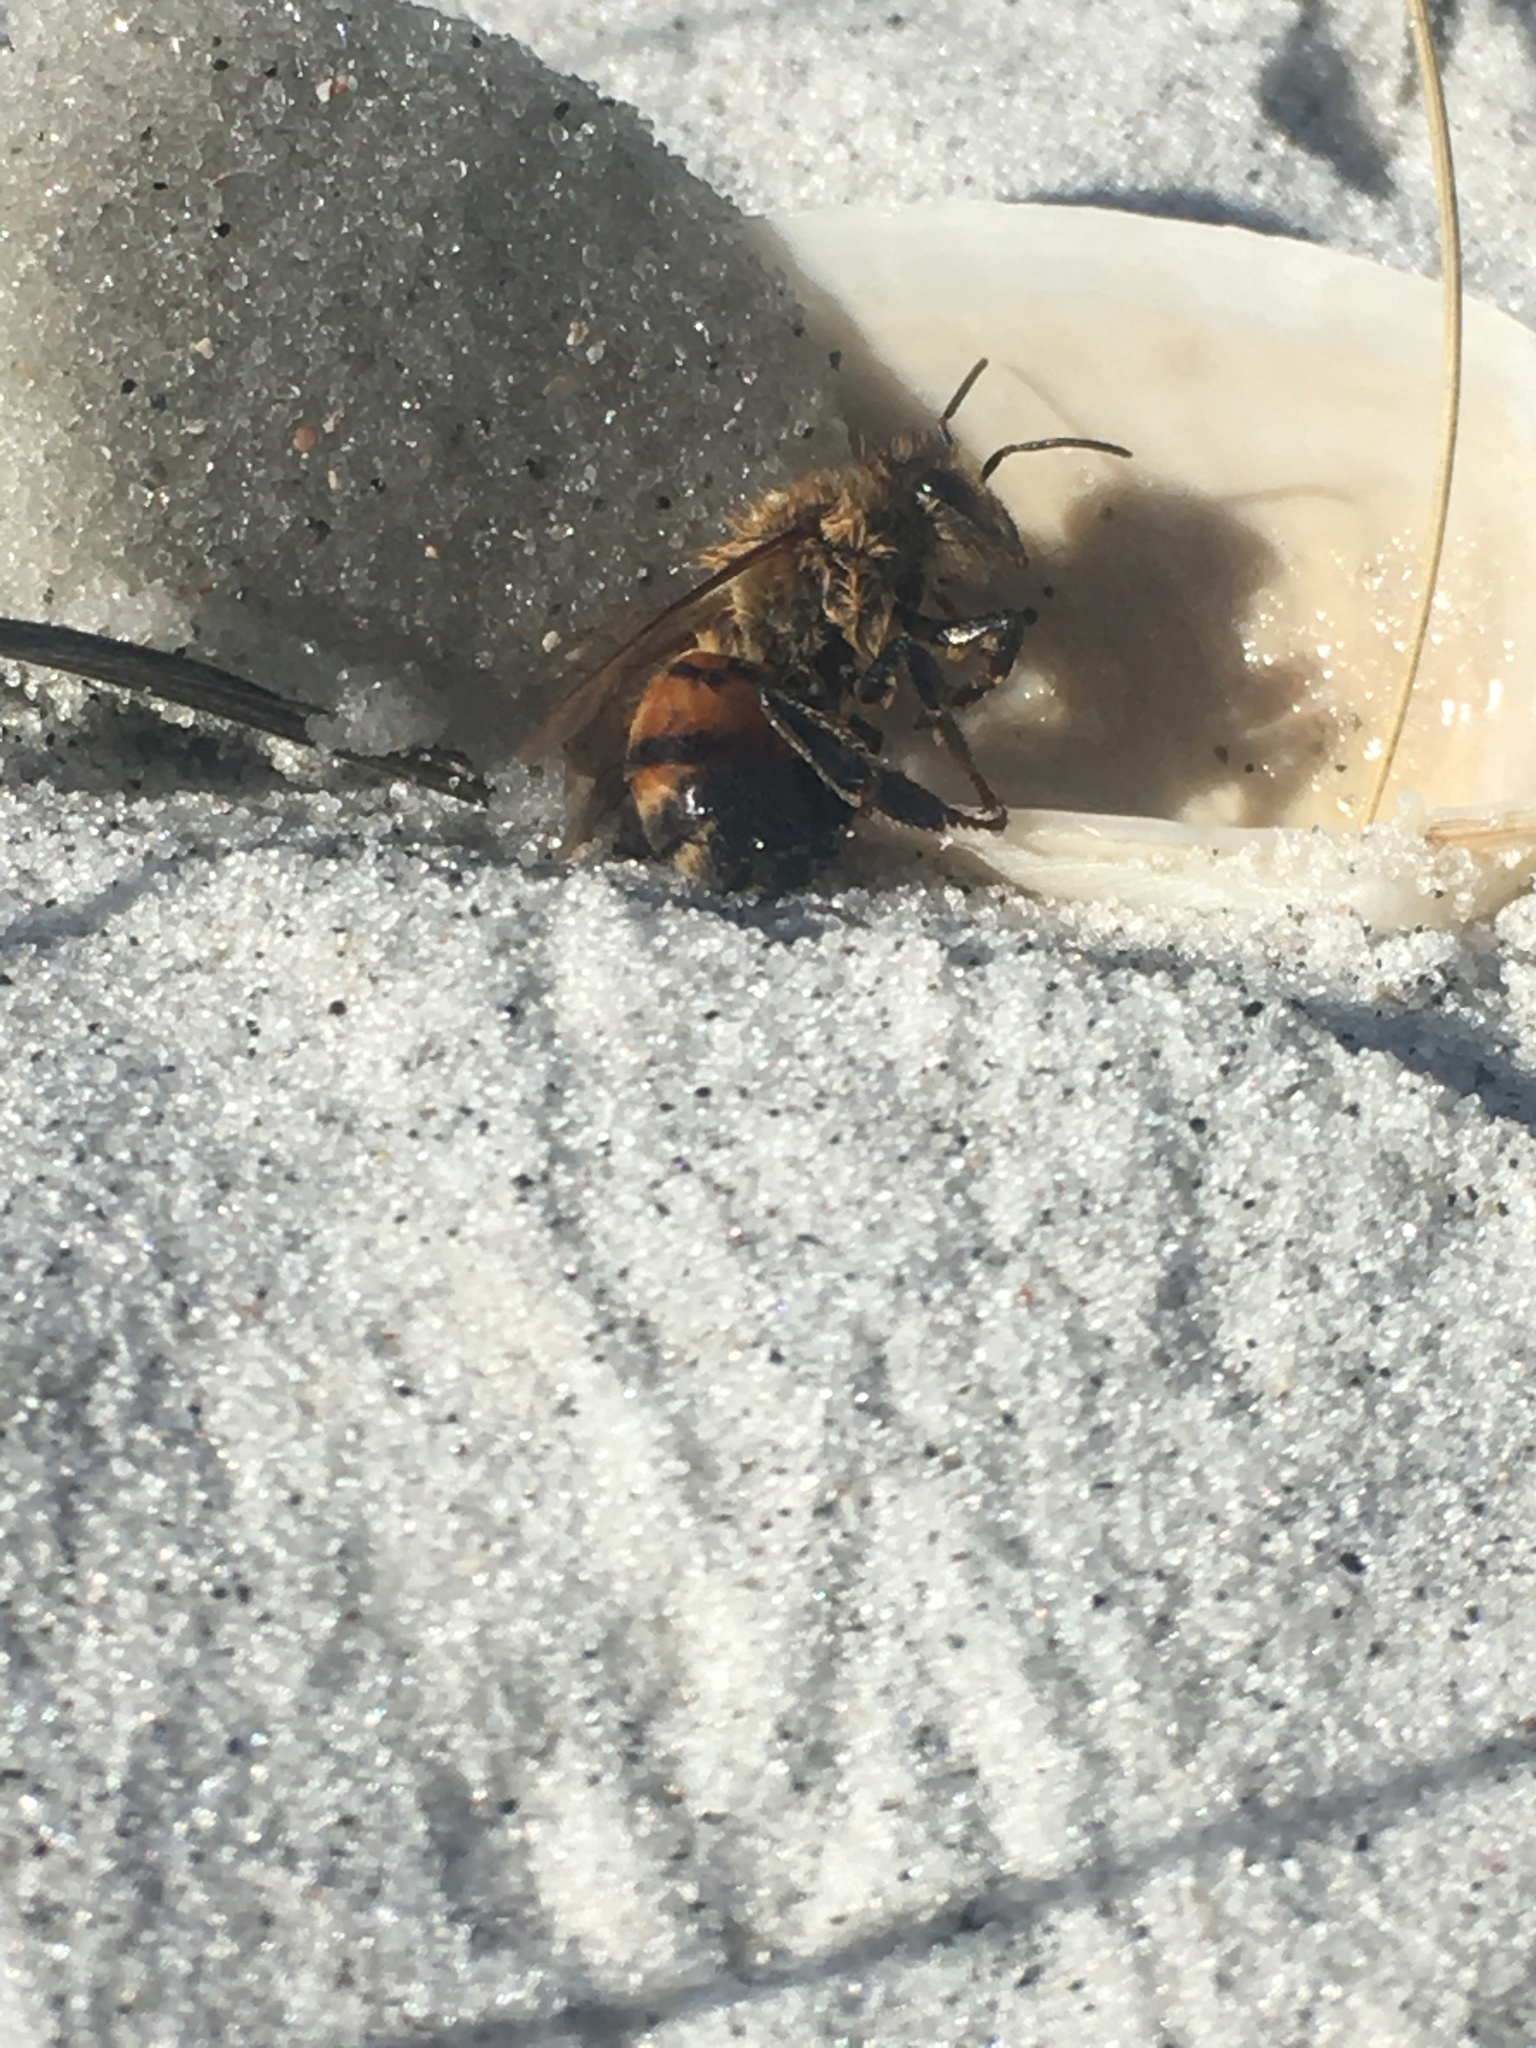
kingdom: Animalia
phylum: Arthropoda
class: Insecta
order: Hymenoptera
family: Apidae
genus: Apis
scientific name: Apis mellifera
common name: Honey bee
